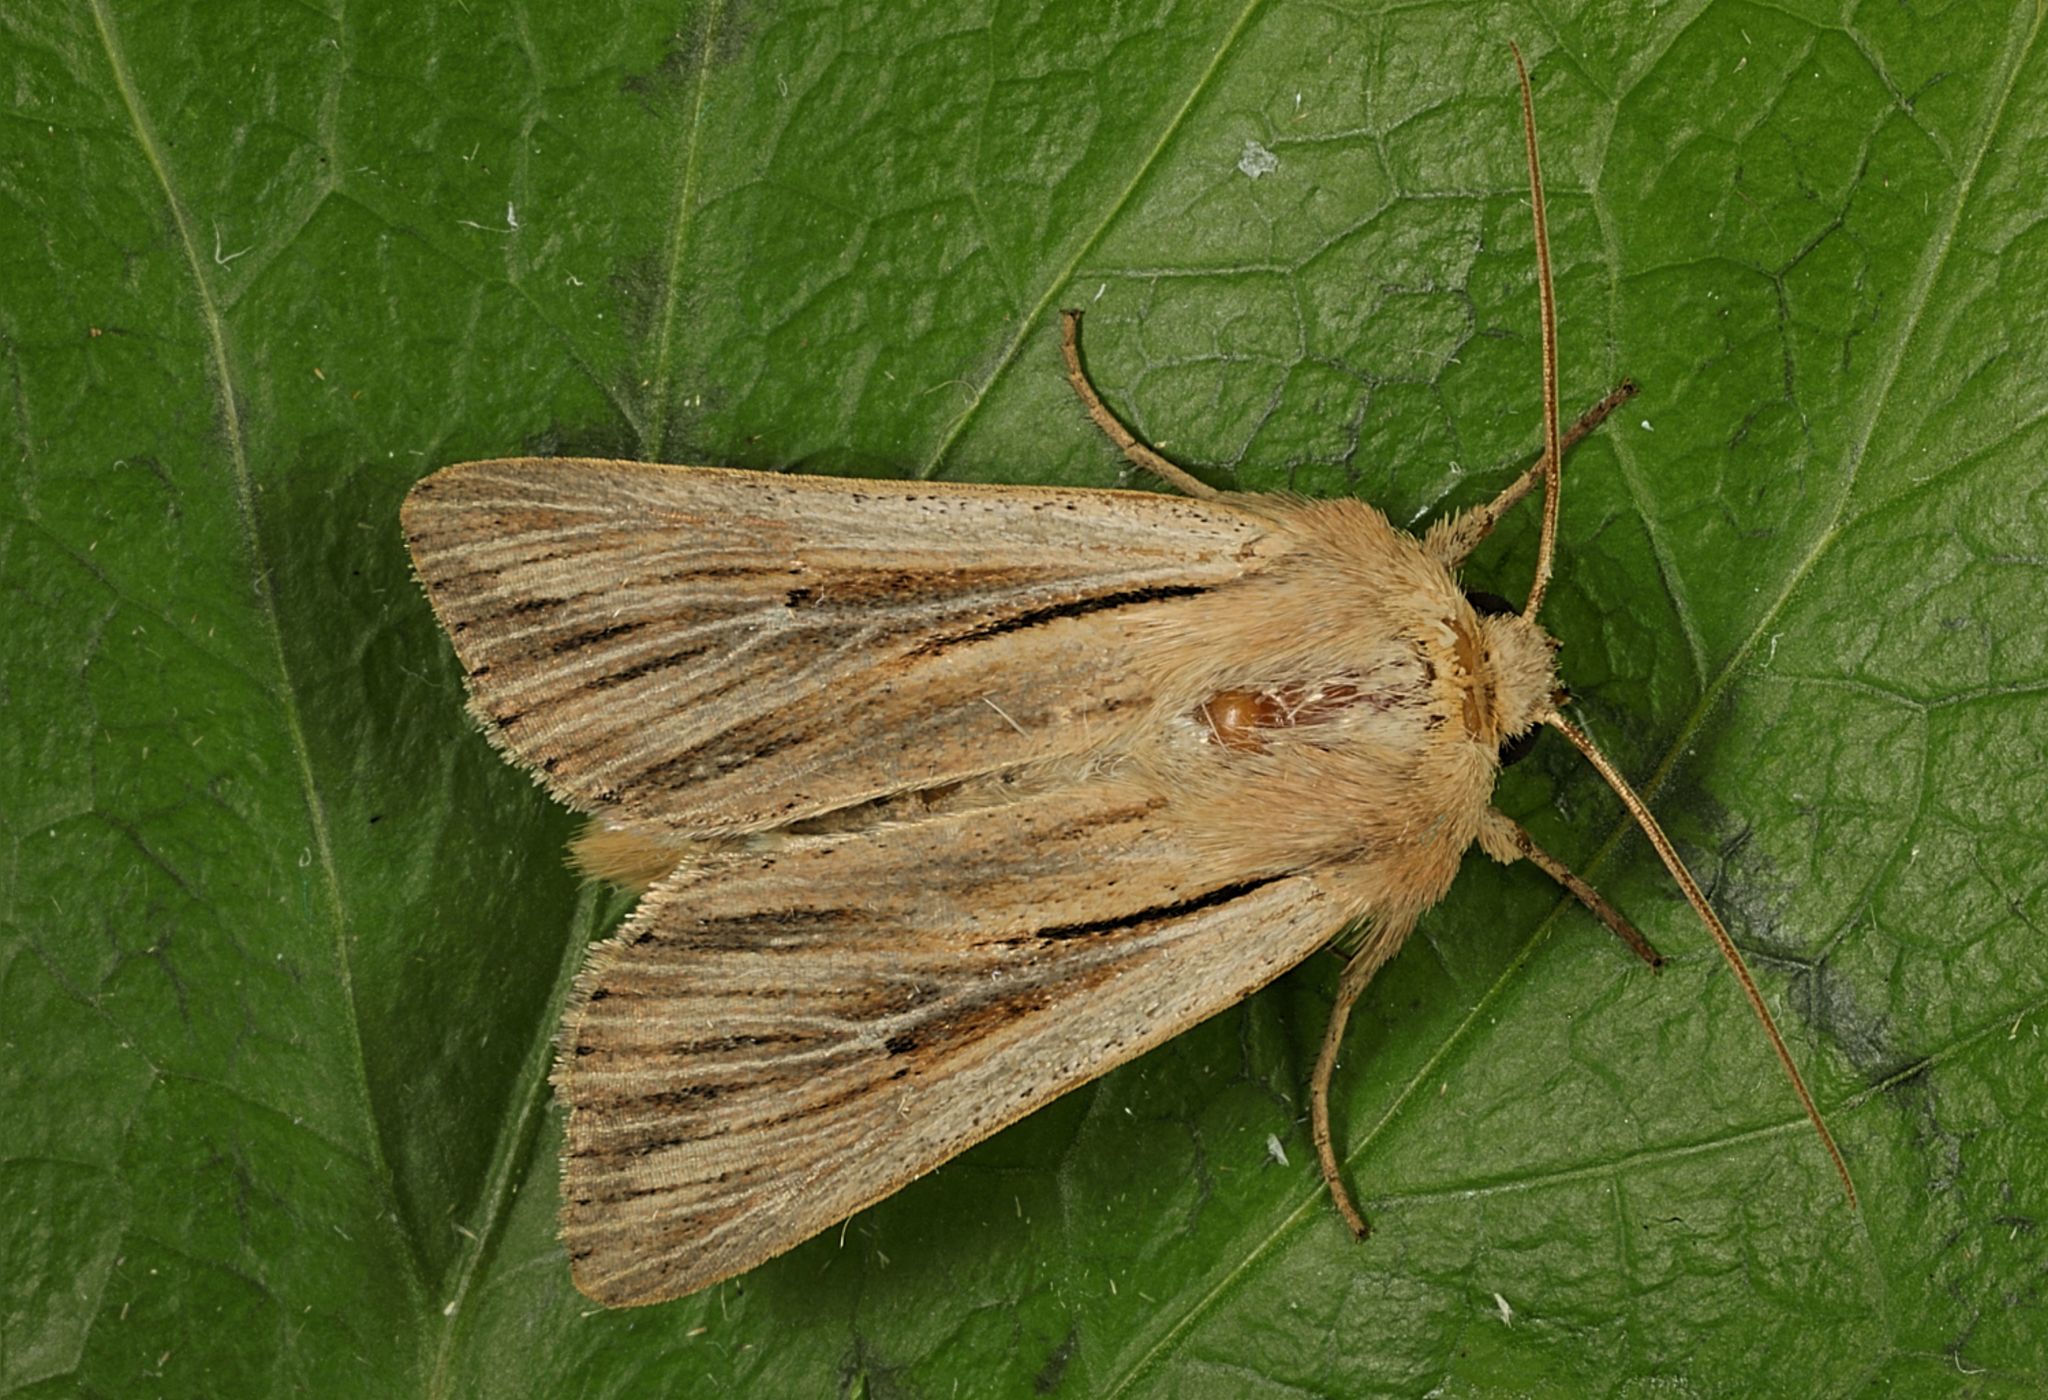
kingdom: Animalia
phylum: Arthropoda
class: Insecta
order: Lepidoptera
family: Noctuidae
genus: Leucania
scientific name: Leucania comma
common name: Shoulder-striped wainscot
